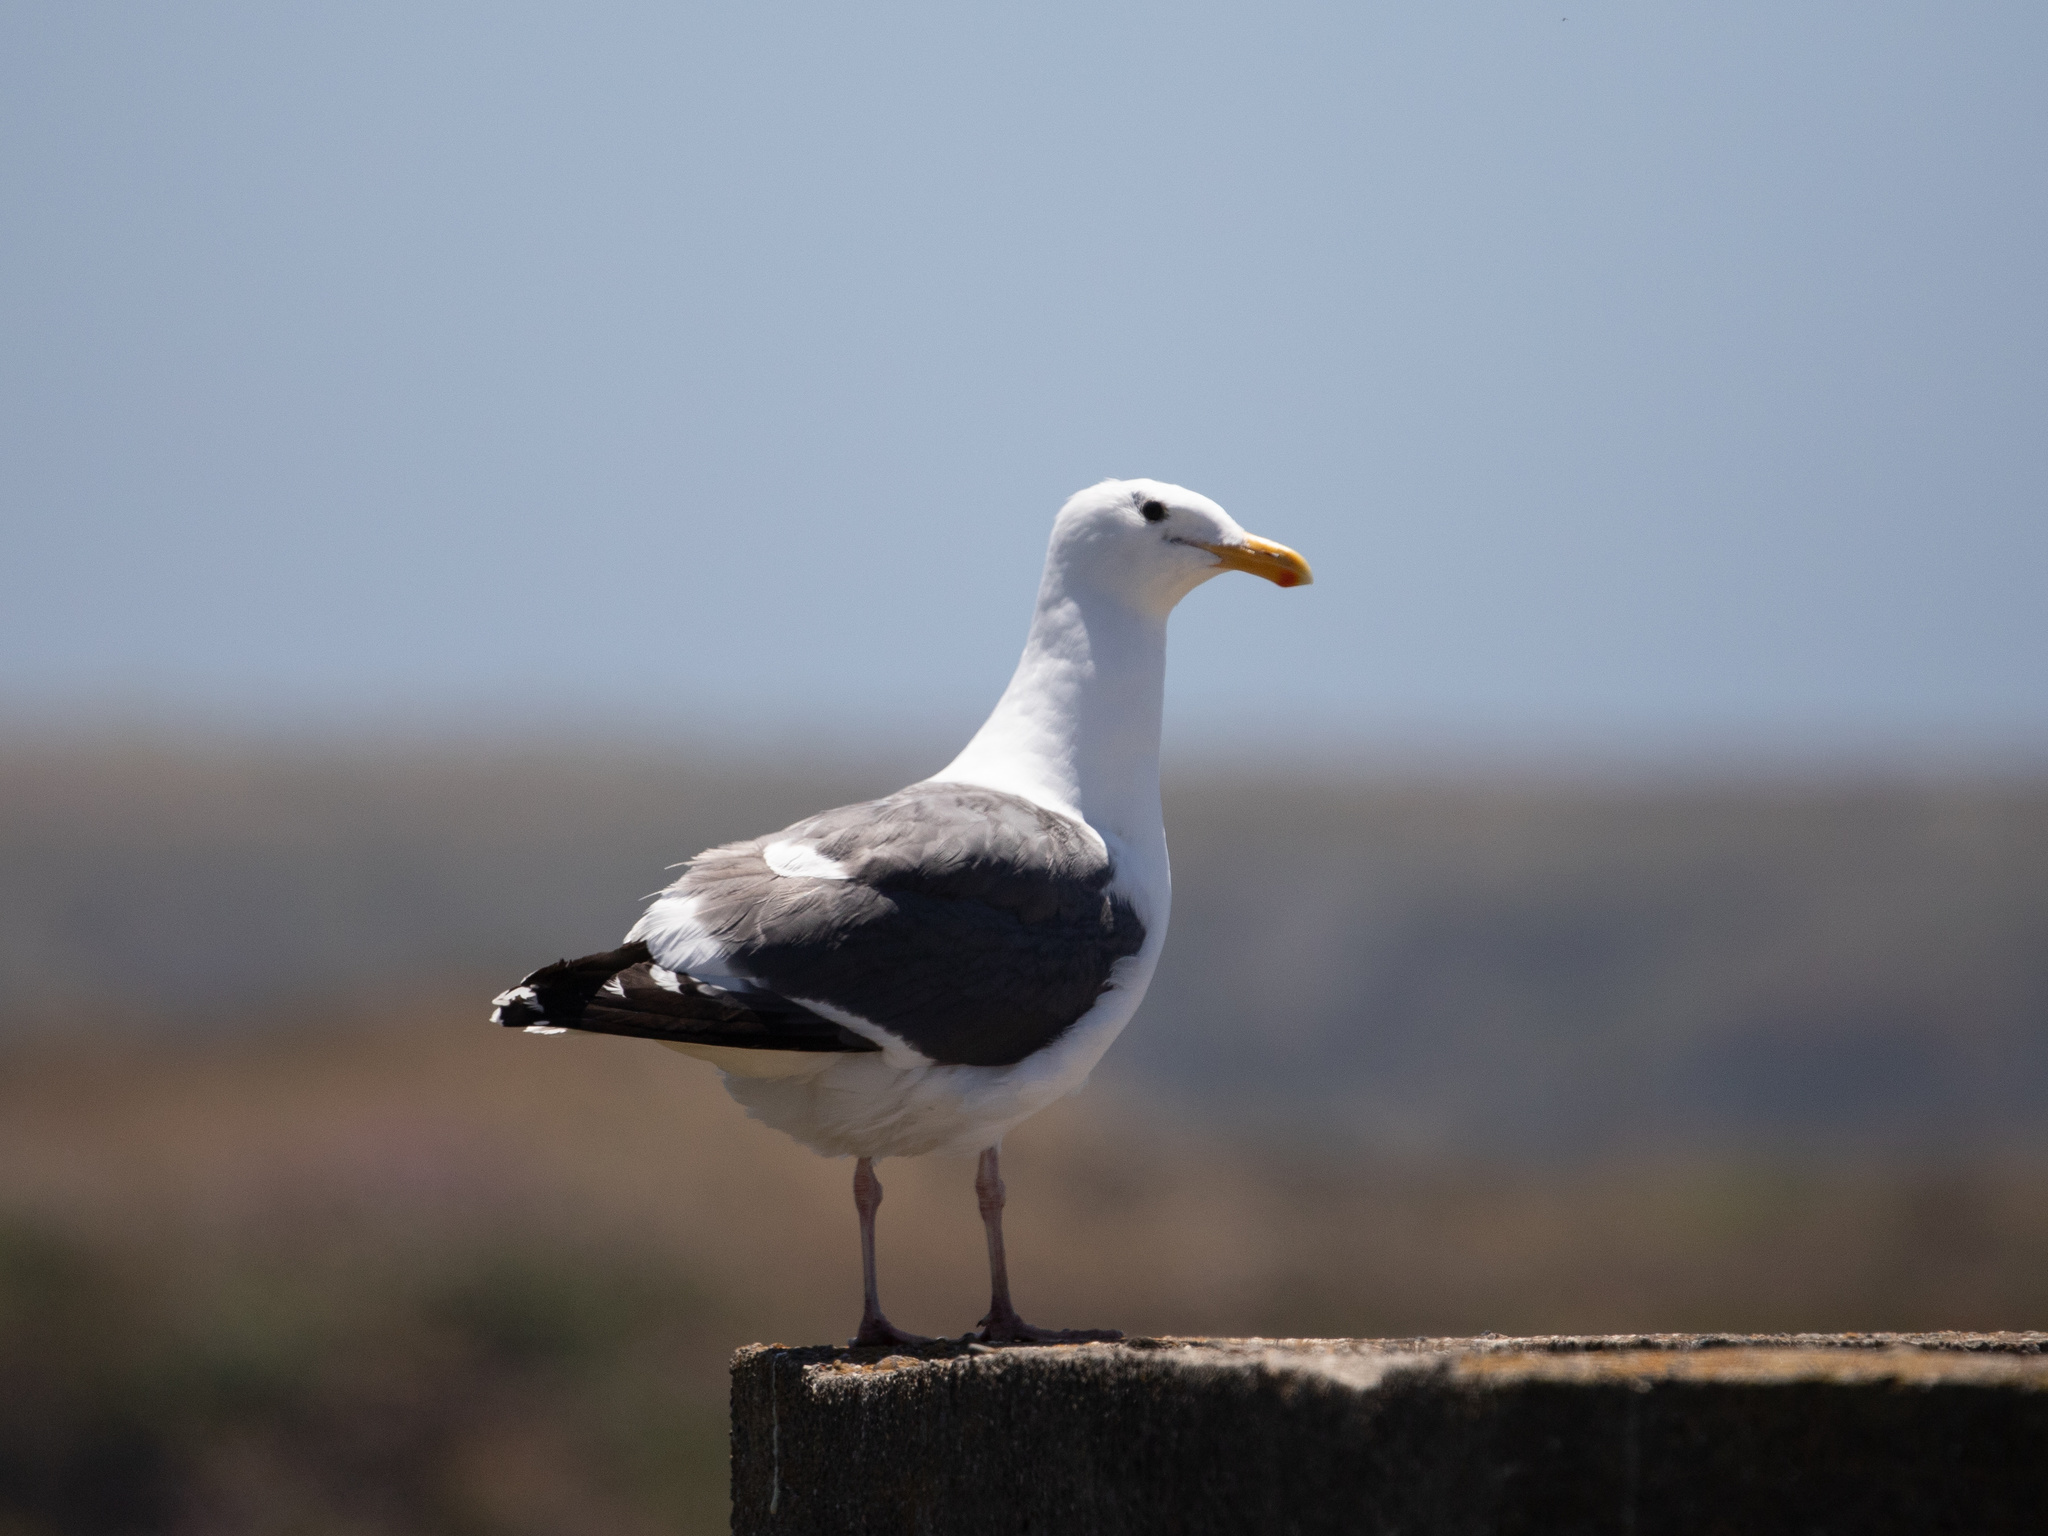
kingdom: Animalia
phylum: Chordata
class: Aves
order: Charadriiformes
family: Laridae
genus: Larus
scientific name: Larus occidentalis
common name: Western gull
